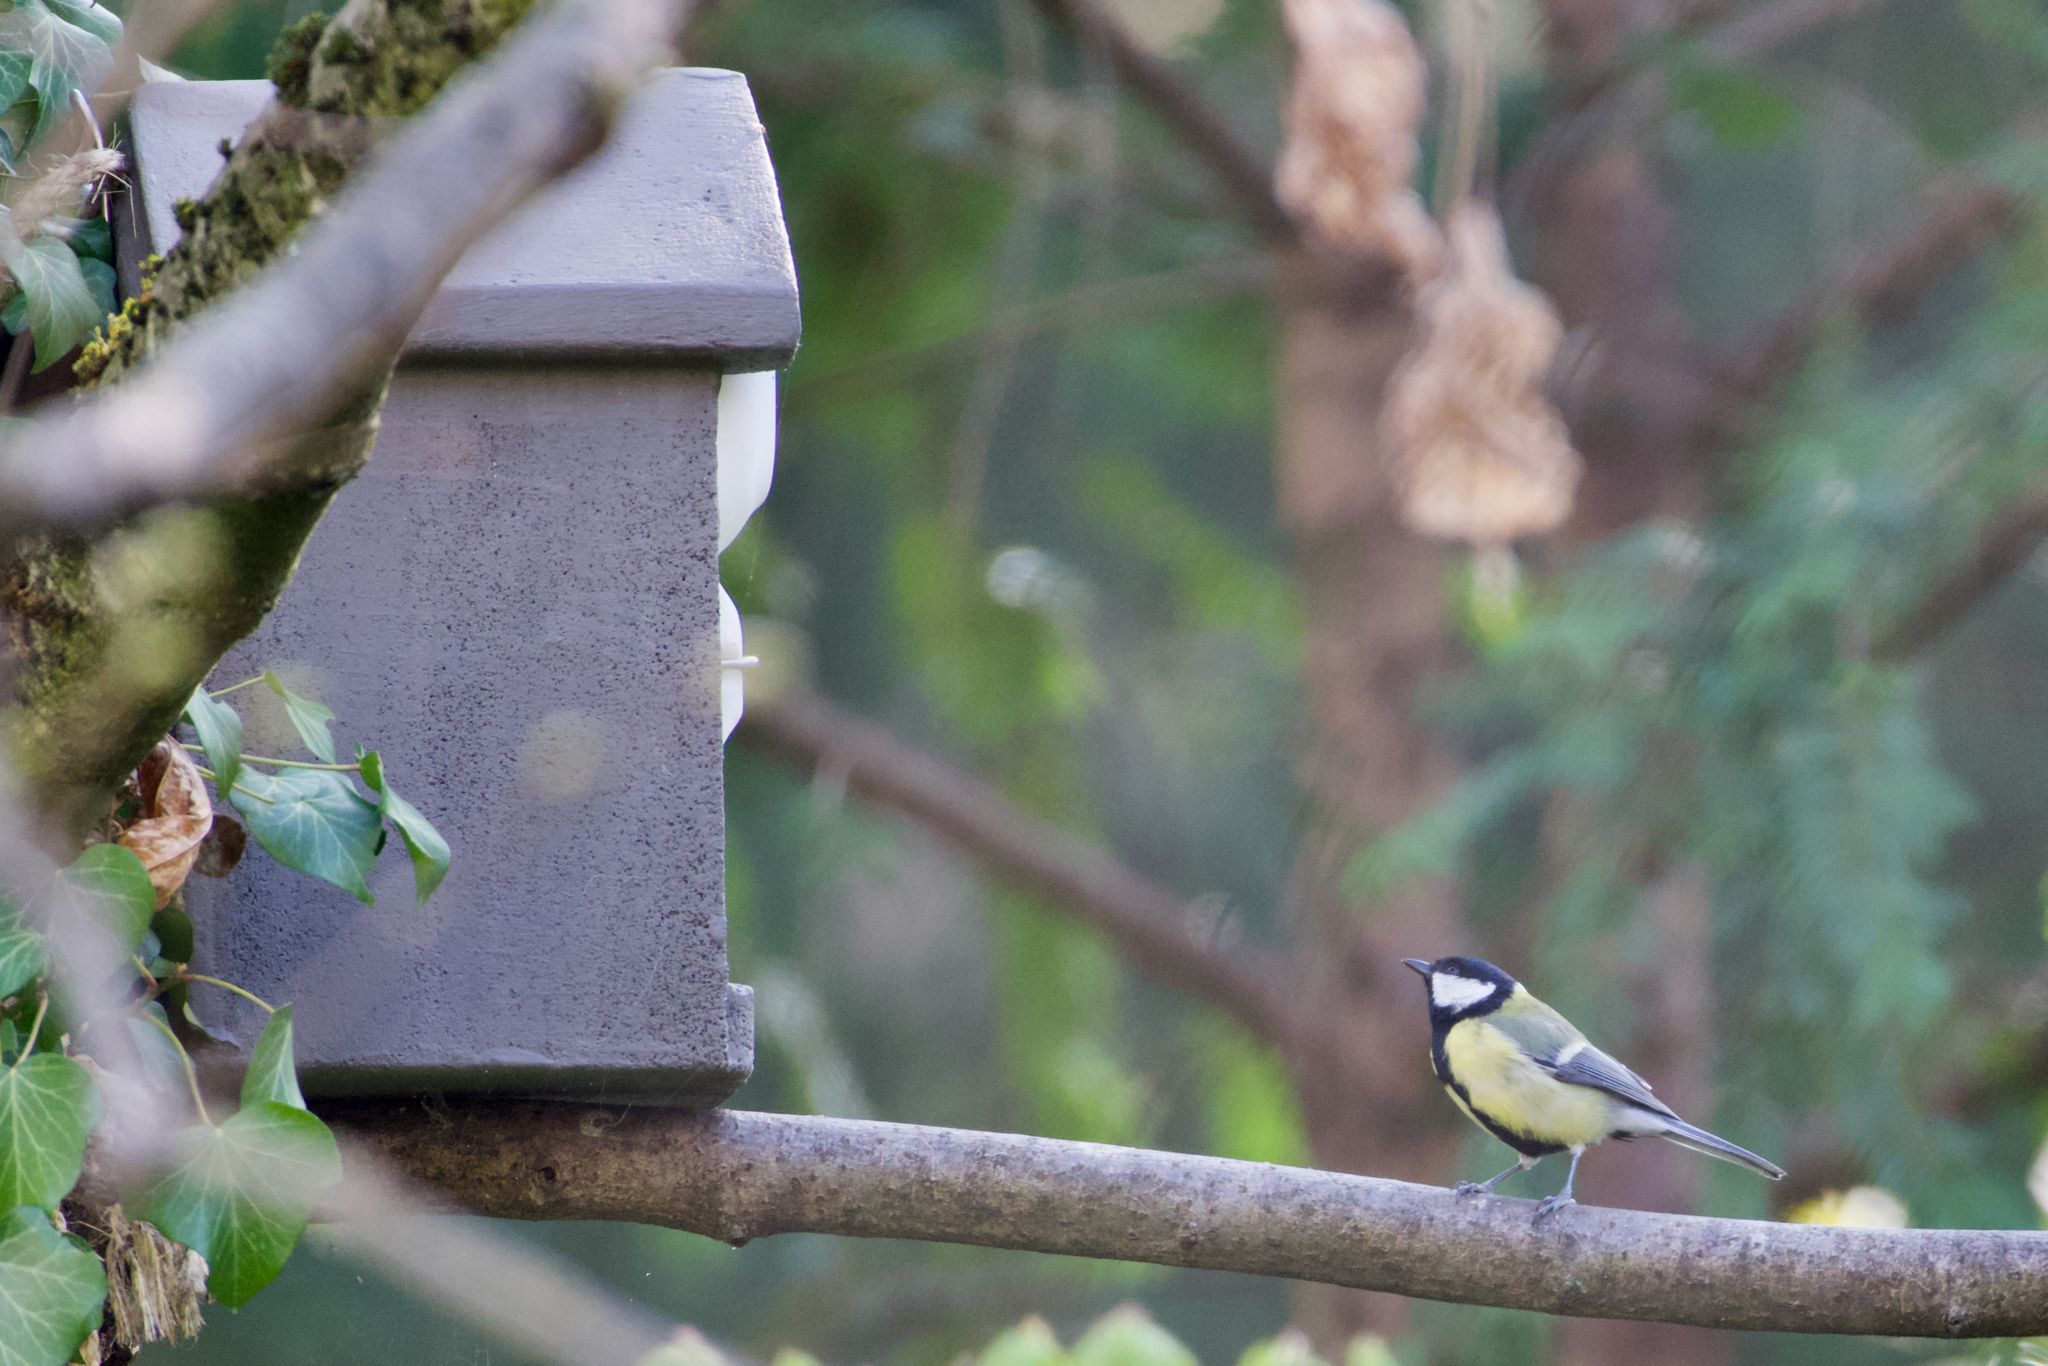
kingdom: Animalia
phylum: Chordata
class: Aves
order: Passeriformes
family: Paridae
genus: Parus
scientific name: Parus major
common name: Great tit
